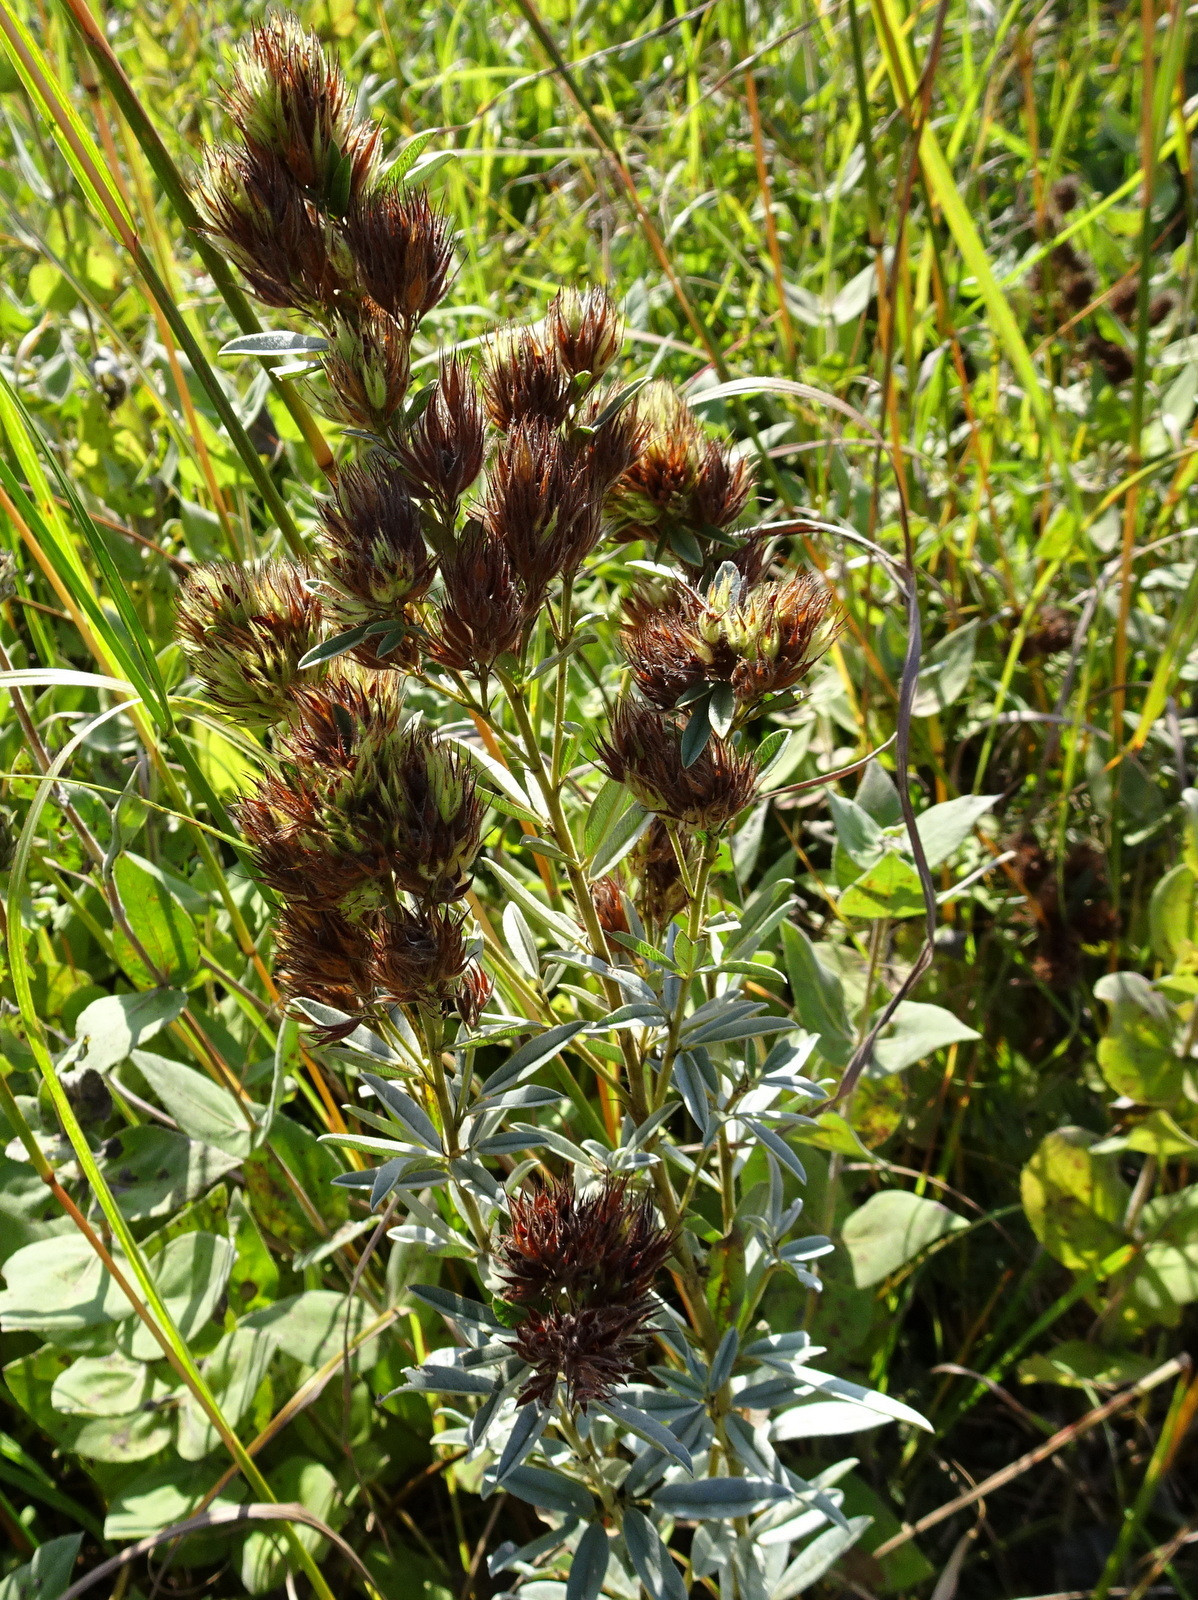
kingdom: Plantae
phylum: Tracheophyta
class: Magnoliopsida
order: Fabales
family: Fabaceae
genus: Lespedeza
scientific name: Lespedeza capitata
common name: Dusty clover
